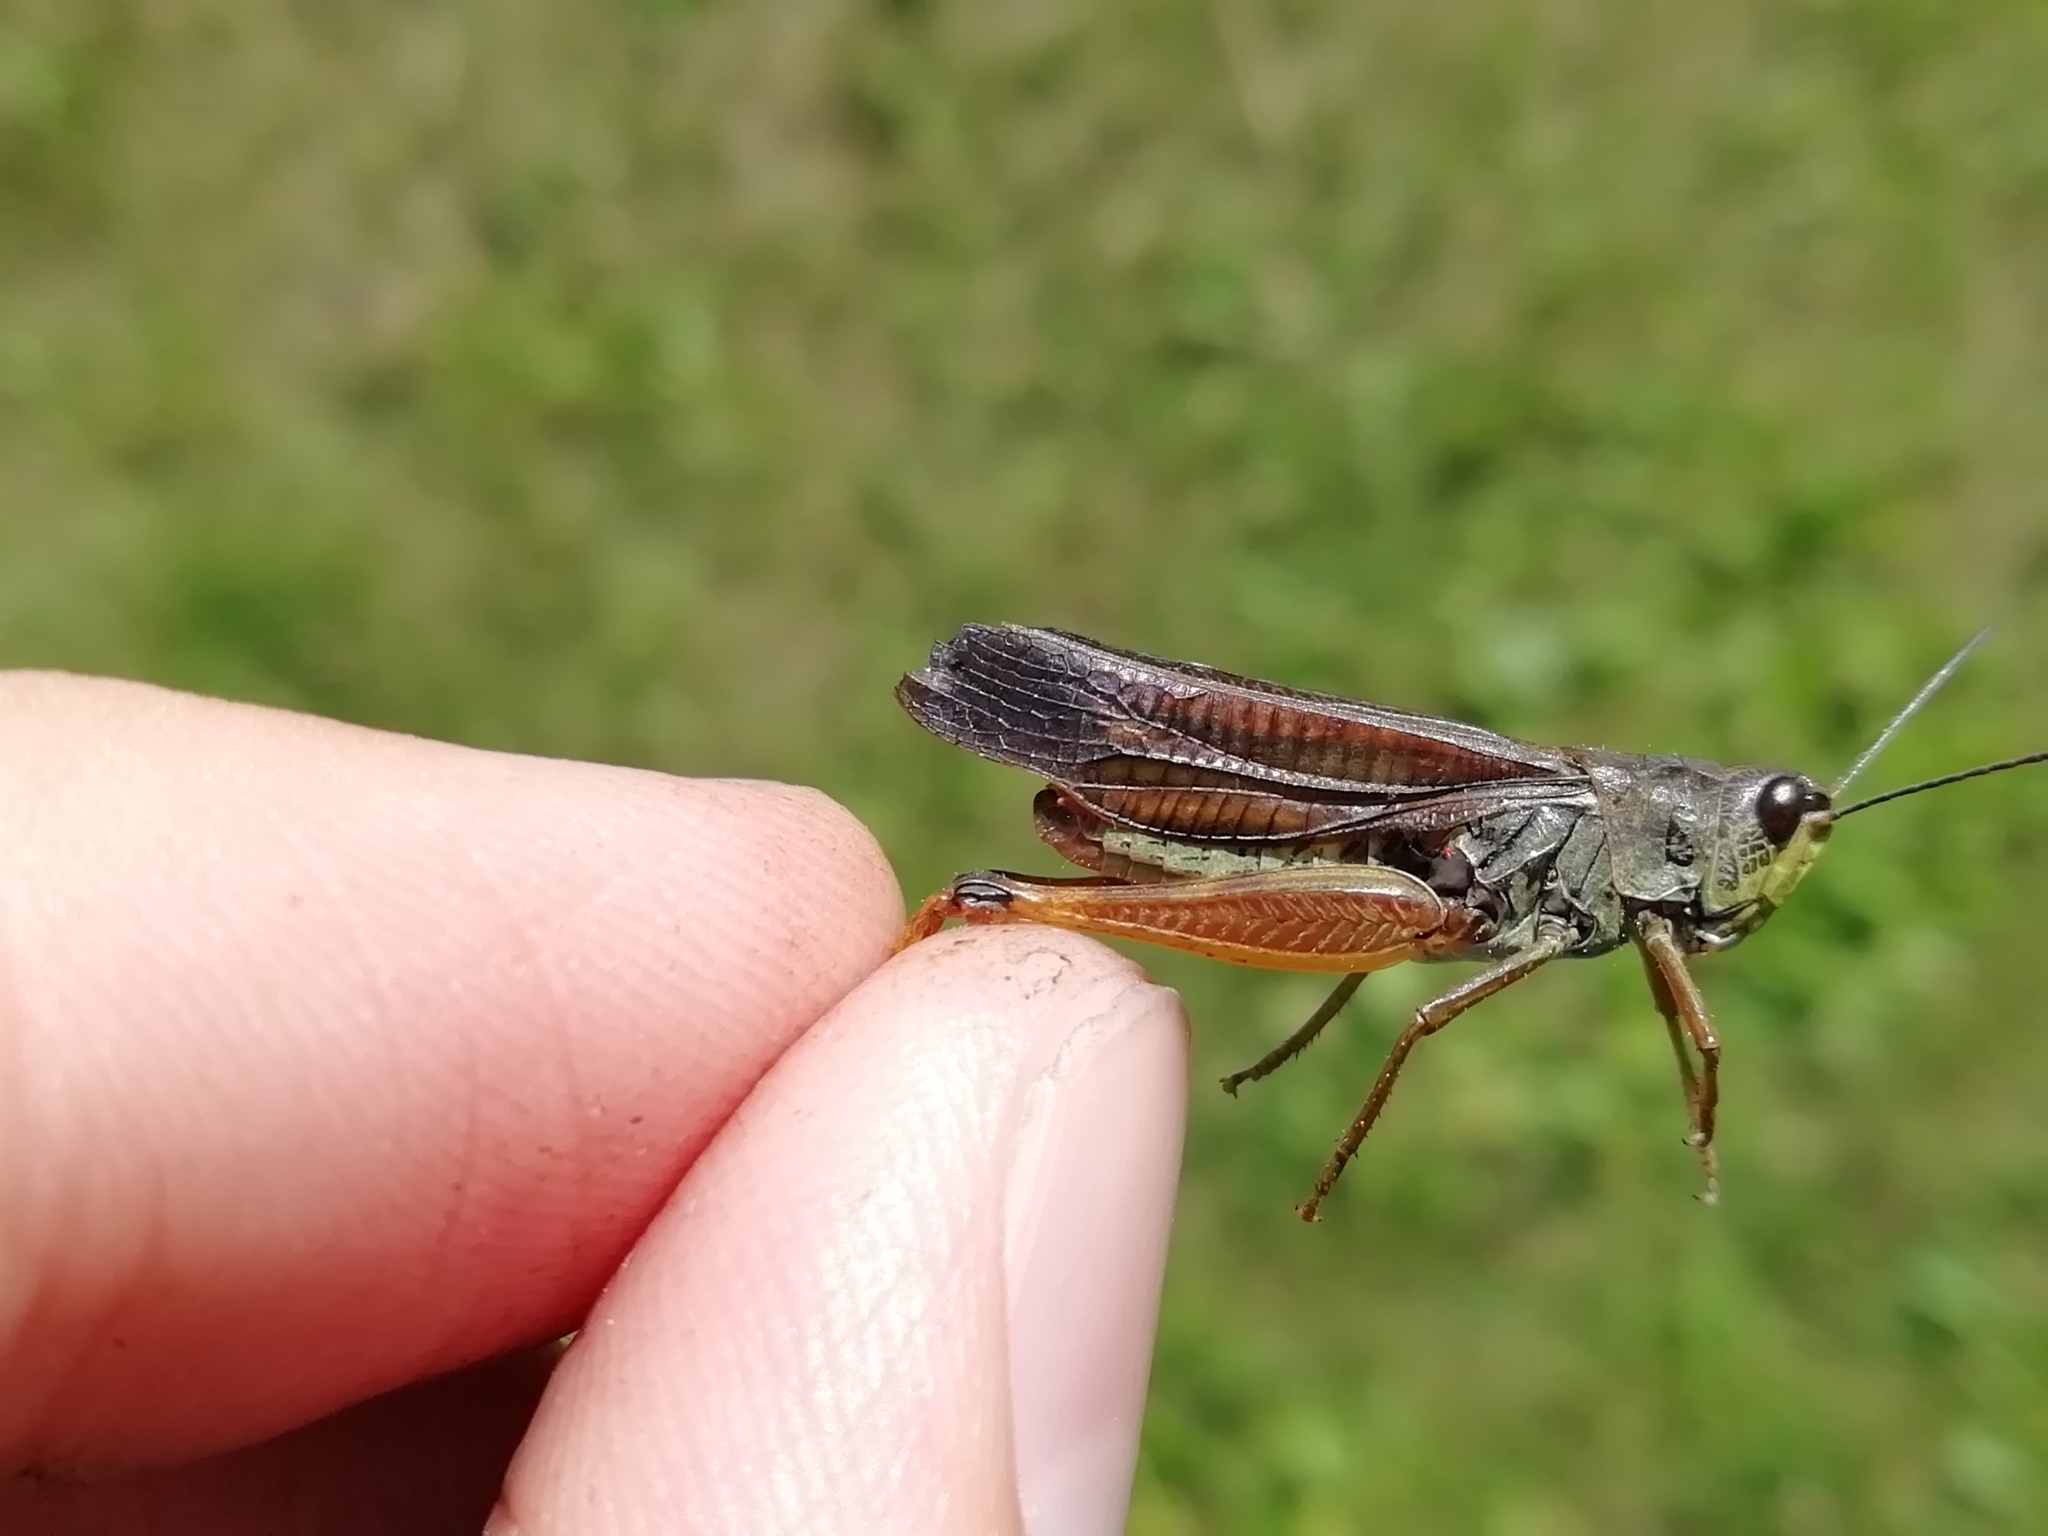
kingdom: Animalia
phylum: Arthropoda
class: Insecta
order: Orthoptera
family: Acrididae
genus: Stauroderus
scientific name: Stauroderus scalaris
